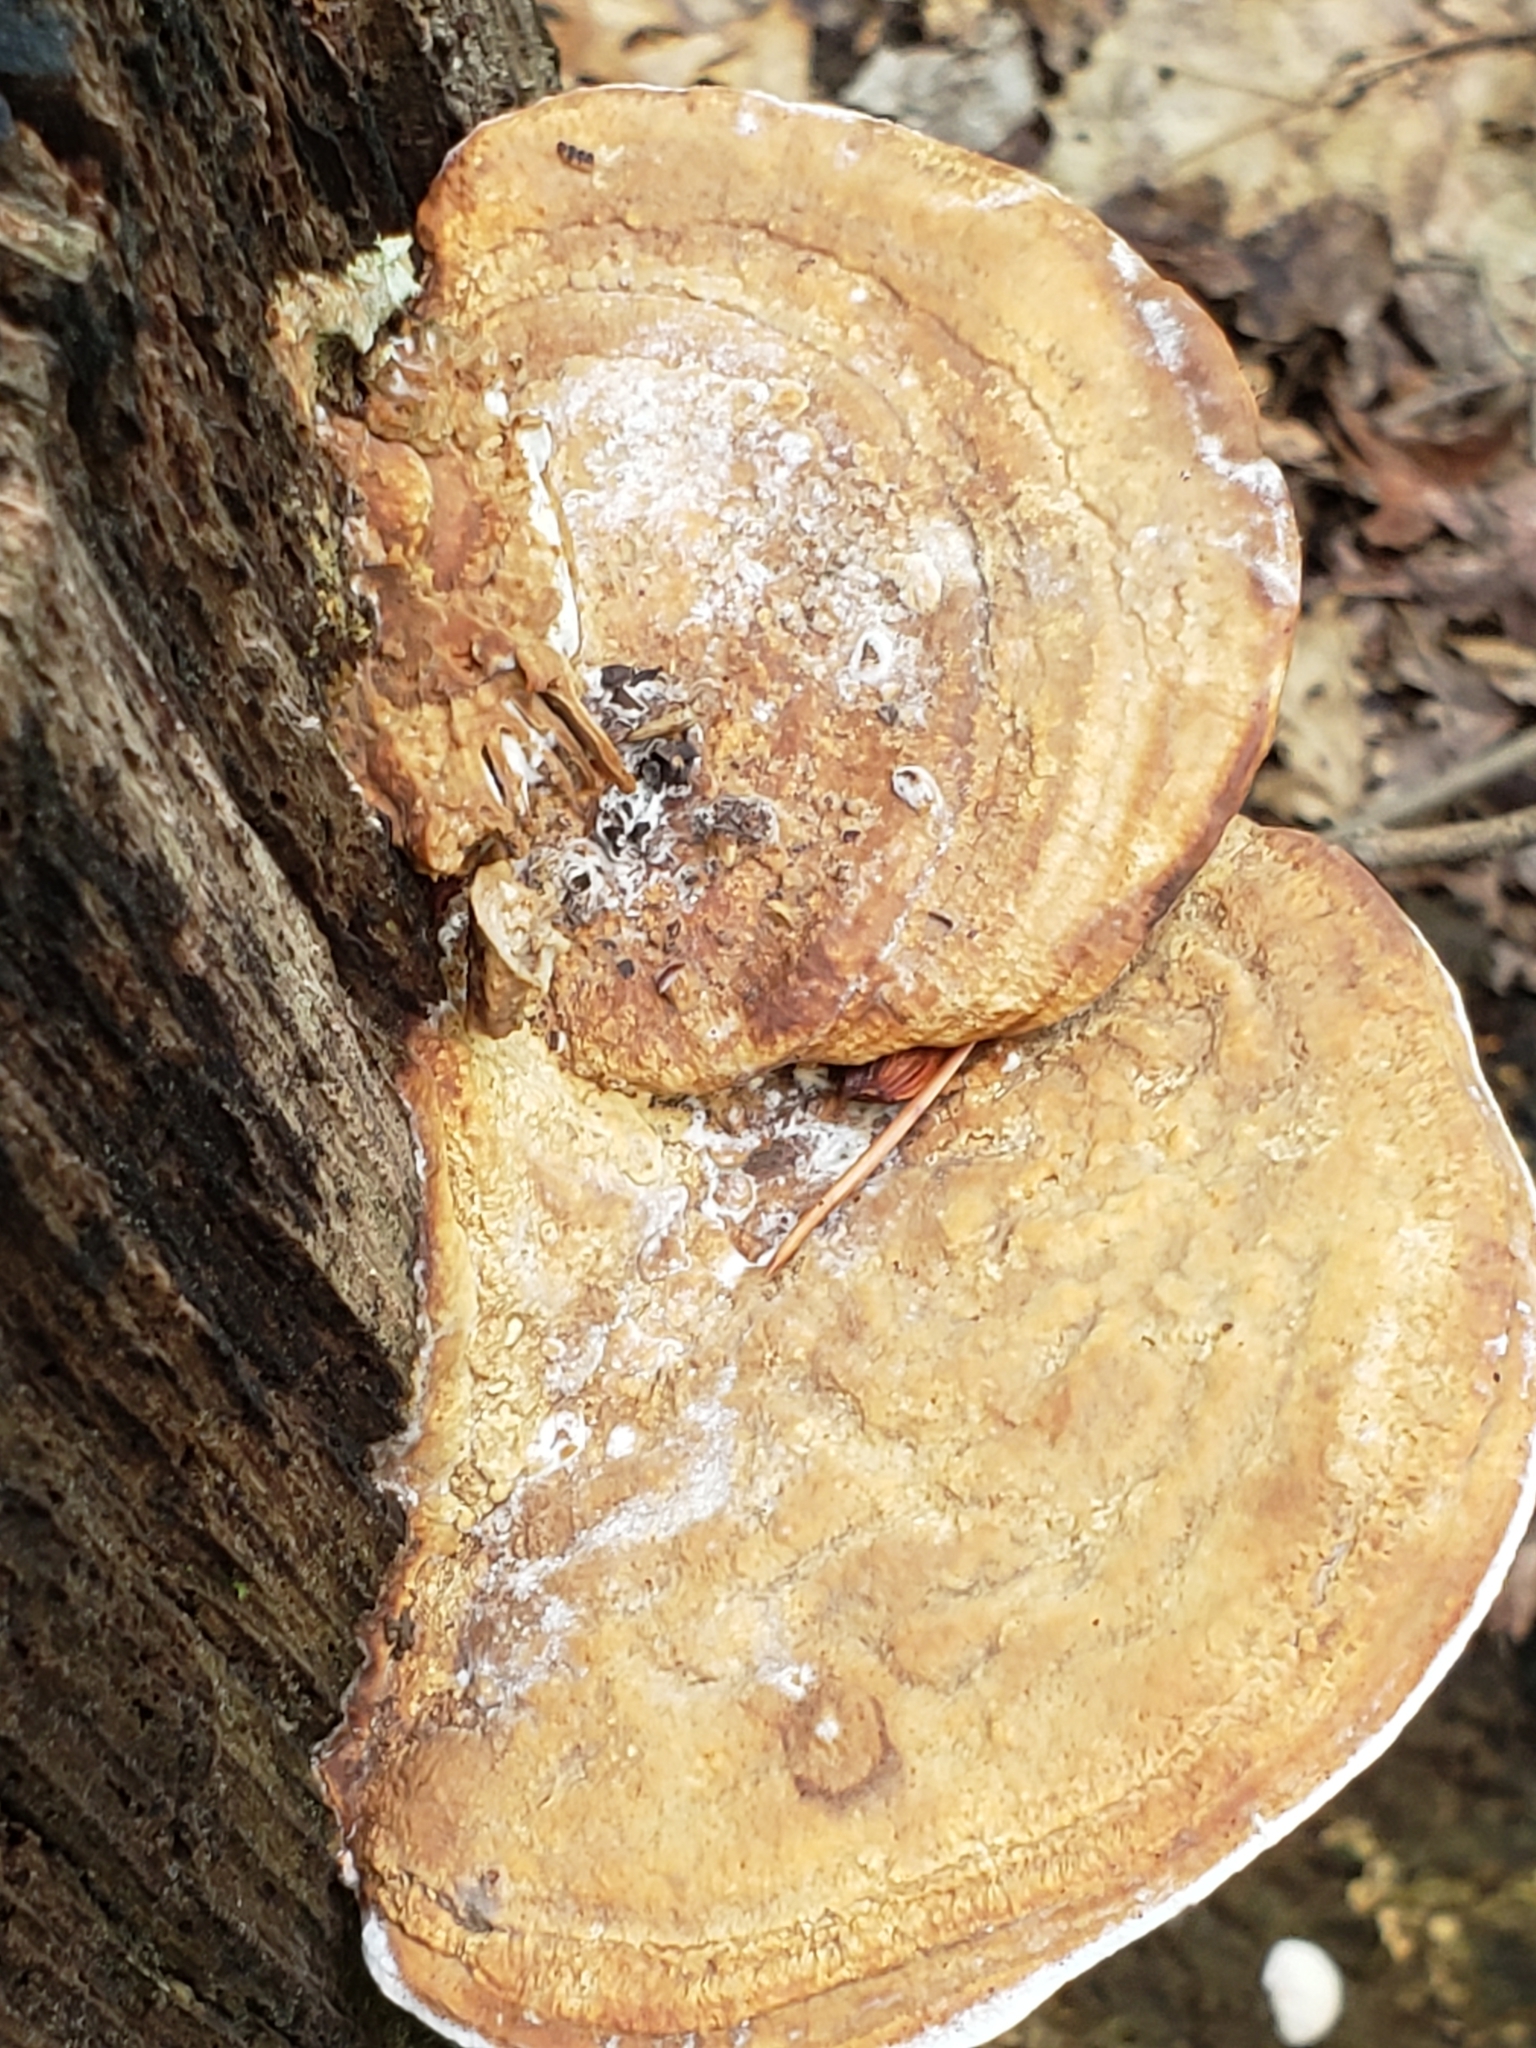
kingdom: Fungi
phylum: Basidiomycota
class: Agaricomycetes
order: Polyporales
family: Fomitopsidaceae
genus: Fomitopsis
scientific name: Fomitopsis
